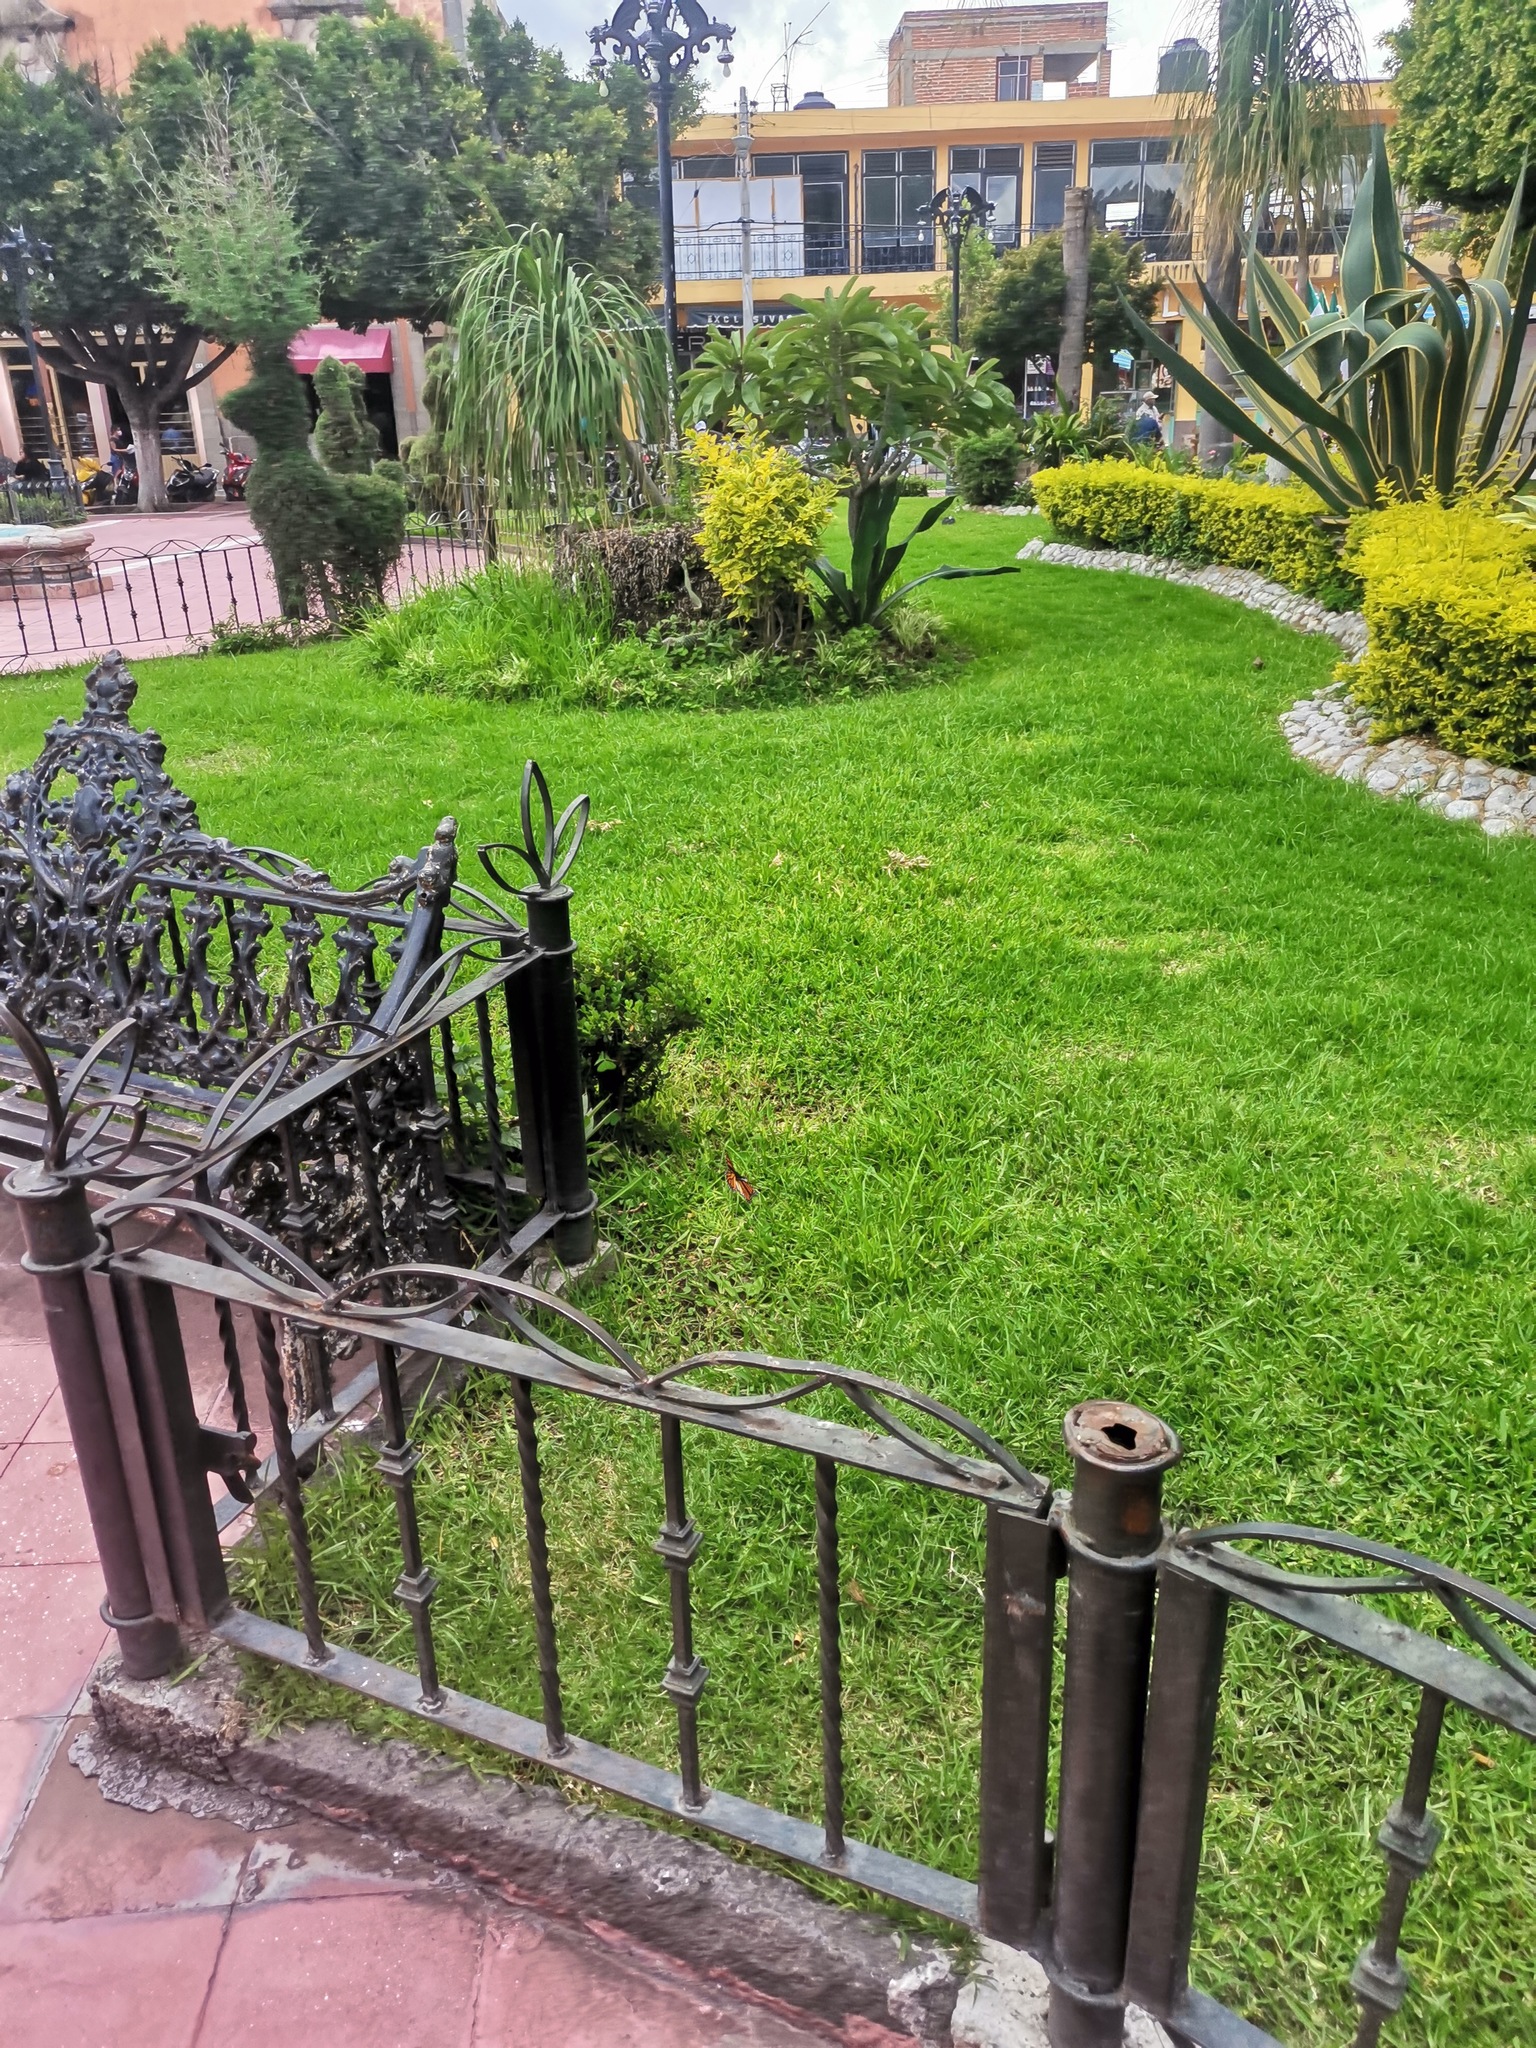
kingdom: Animalia
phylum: Arthropoda
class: Insecta
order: Lepidoptera
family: Nymphalidae
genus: Danaus
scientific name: Danaus plexippus
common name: Monarch
